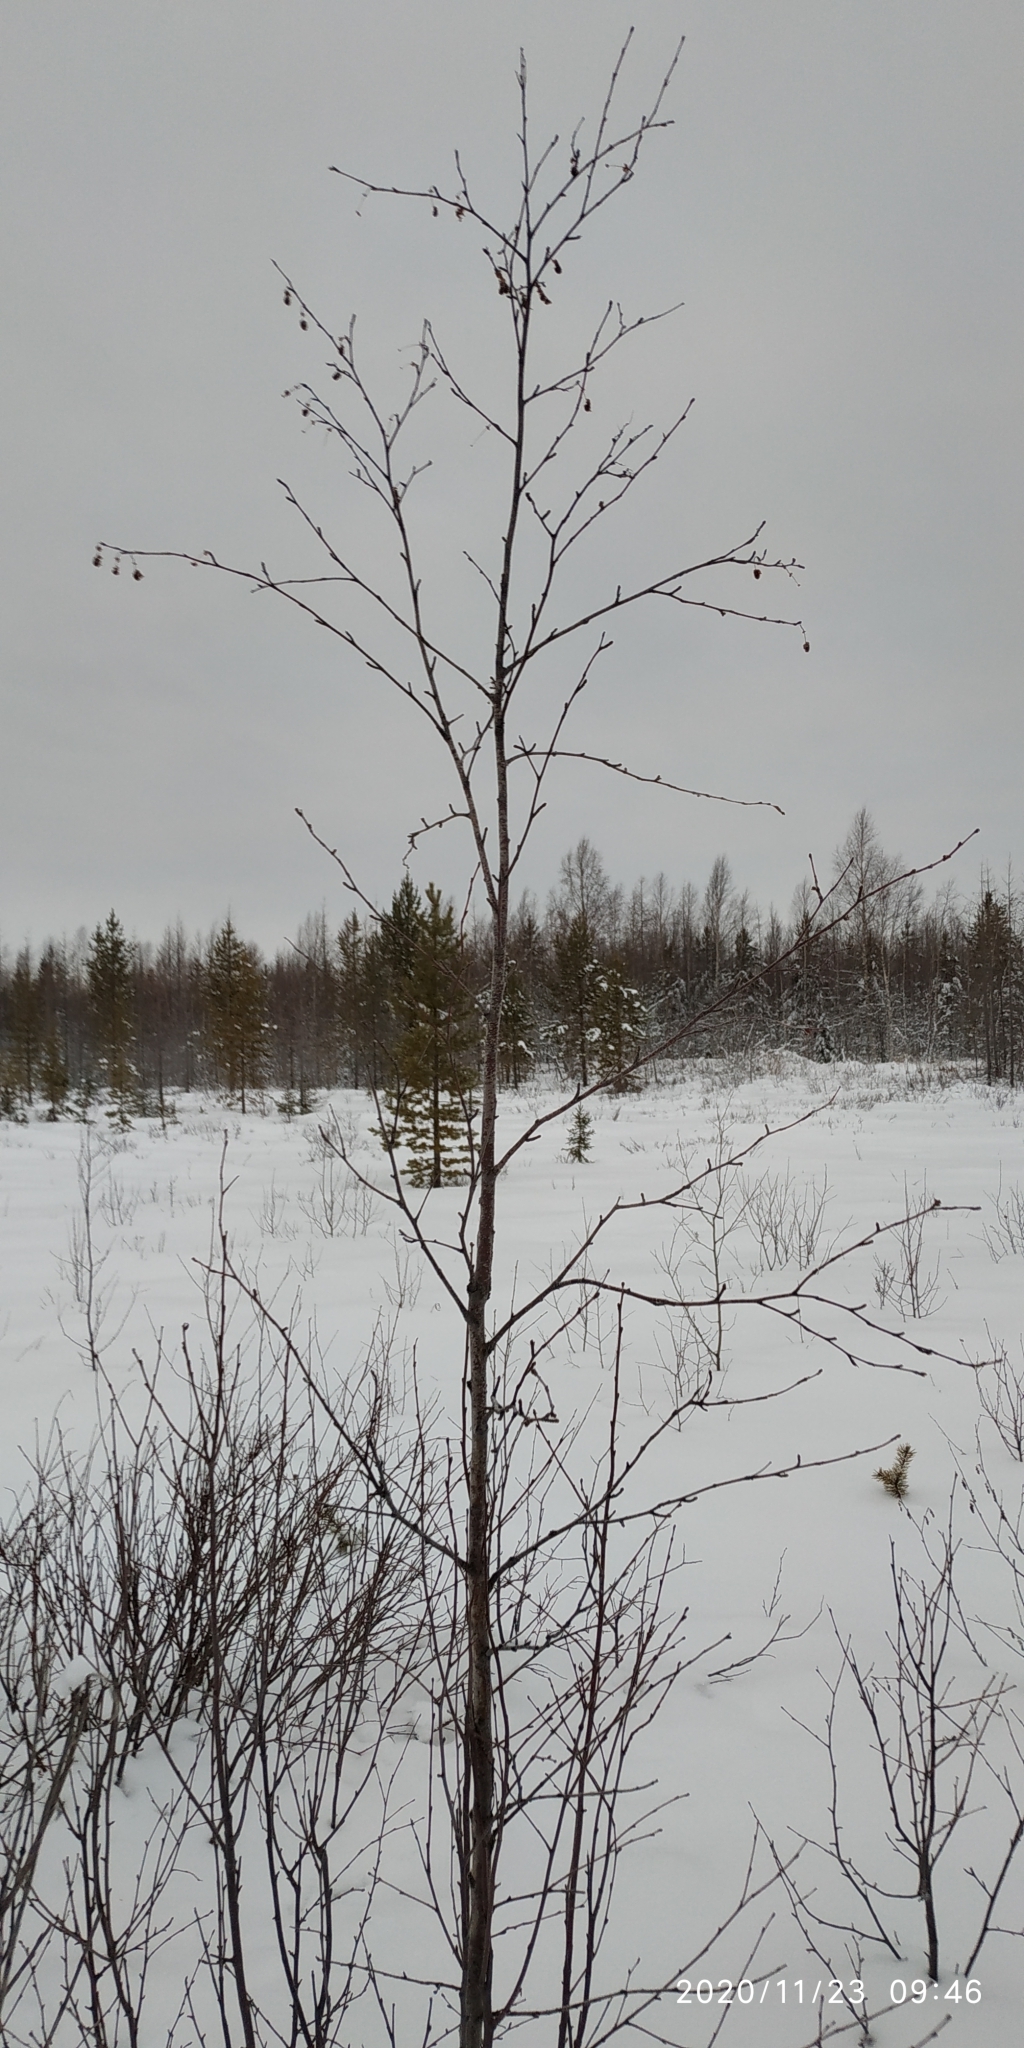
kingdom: Plantae
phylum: Tracheophyta
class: Magnoliopsida
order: Fagales
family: Betulaceae
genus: Alnus
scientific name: Alnus alnobetula
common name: Green alder
